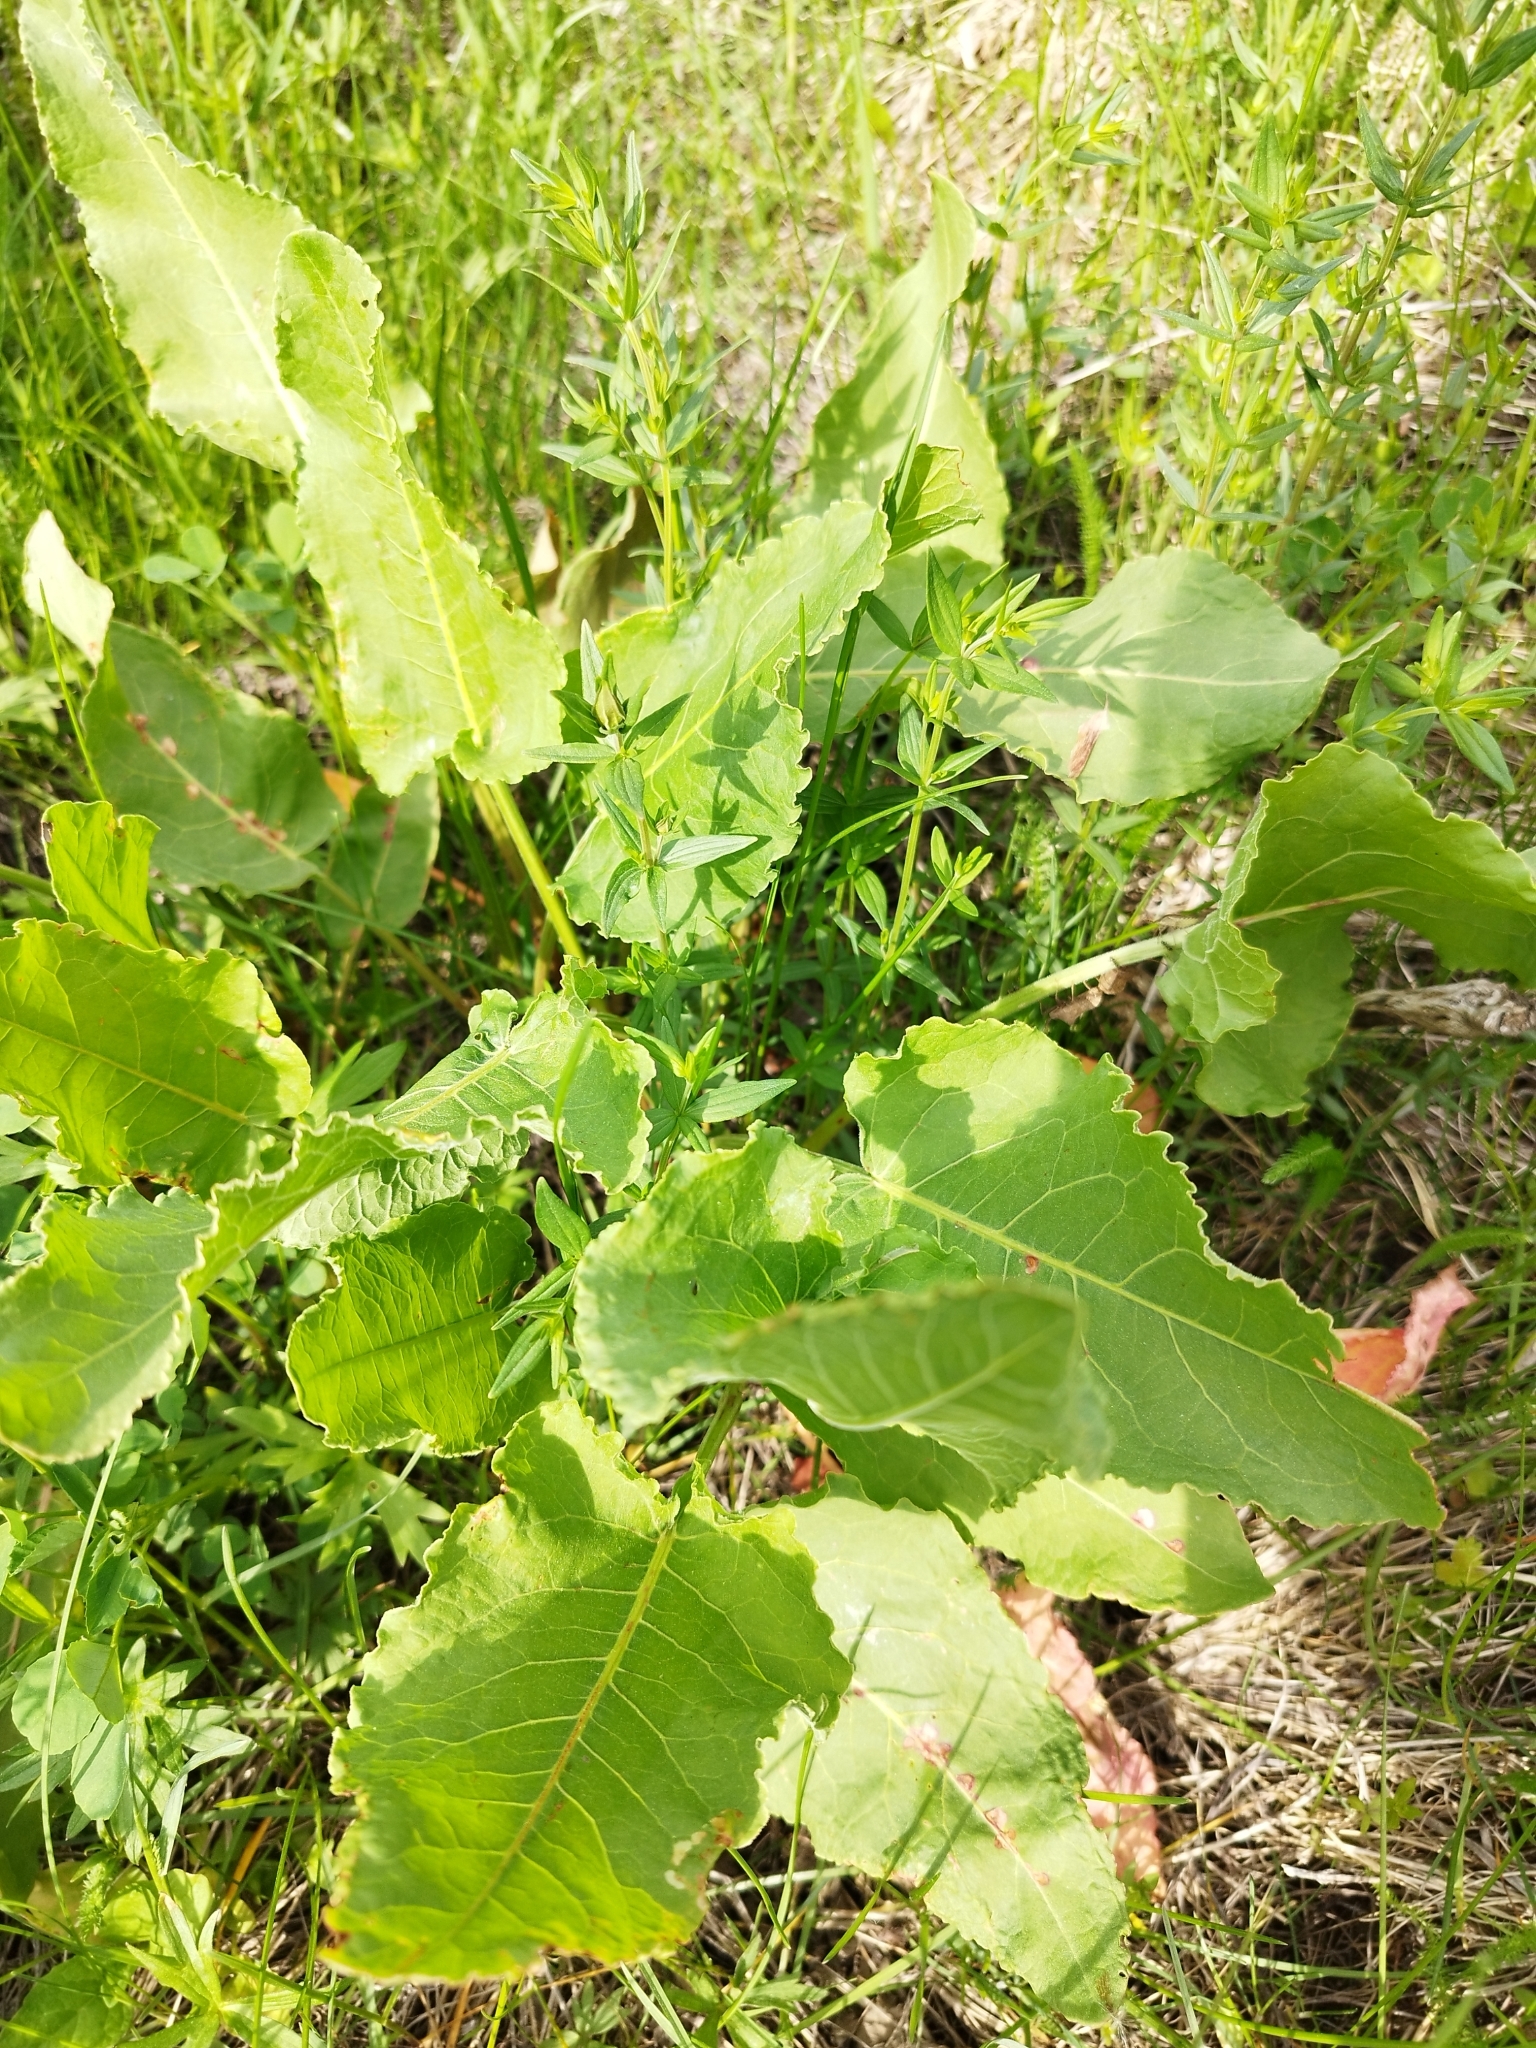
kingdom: Plantae
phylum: Tracheophyta
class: Magnoliopsida
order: Caryophyllales
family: Polygonaceae
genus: Rumex
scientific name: Rumex confertus
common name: Russian dock
